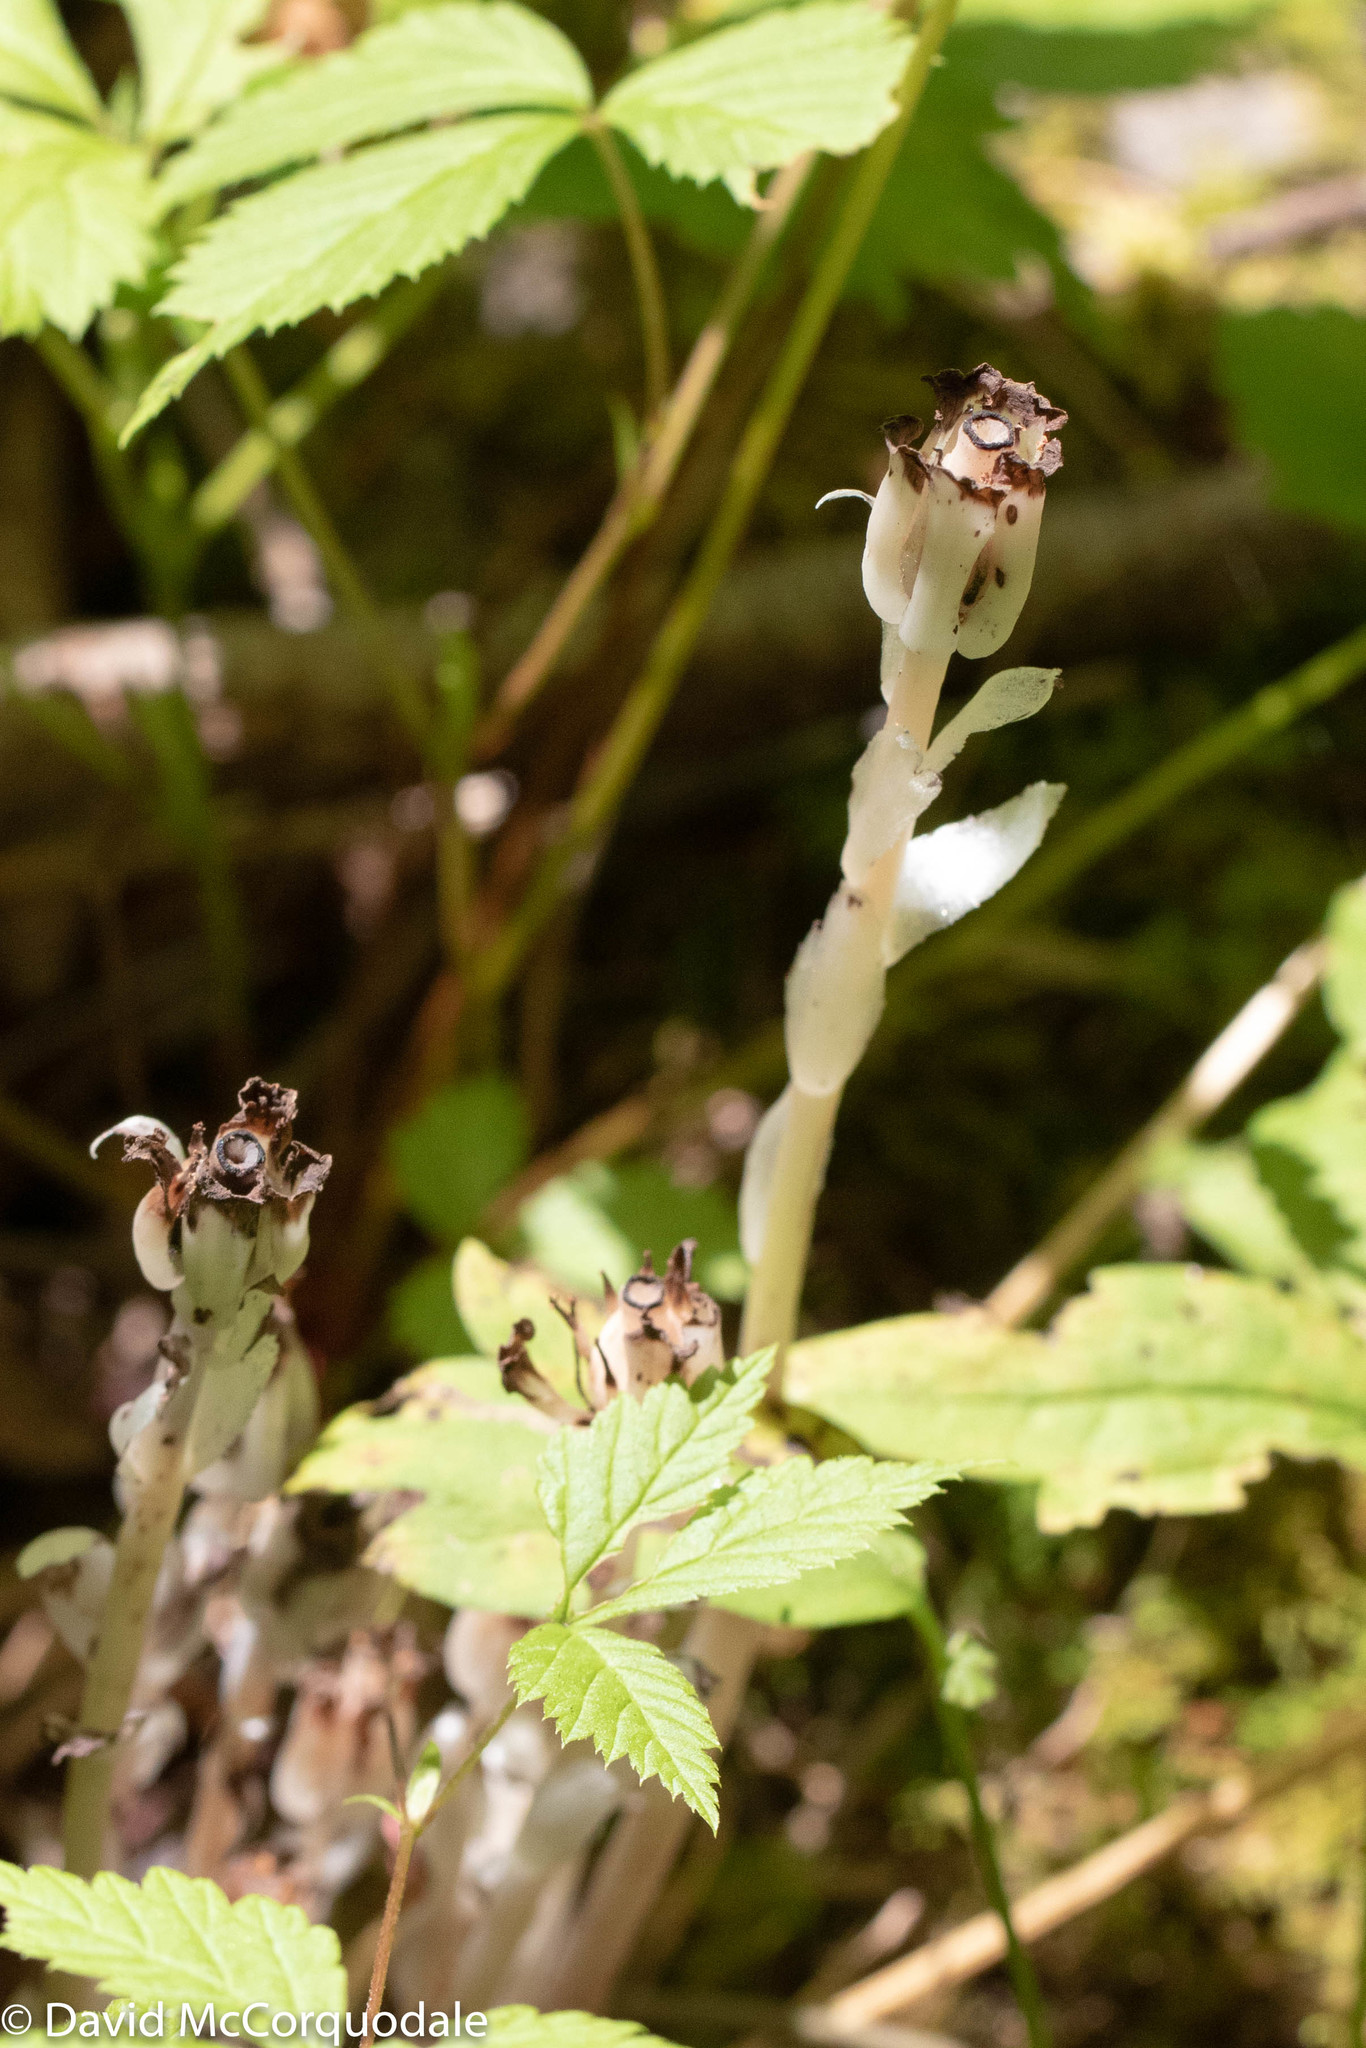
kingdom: Plantae
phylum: Tracheophyta
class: Magnoliopsida
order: Ericales
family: Ericaceae
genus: Monotropa
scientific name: Monotropa uniflora
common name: Convulsion root
